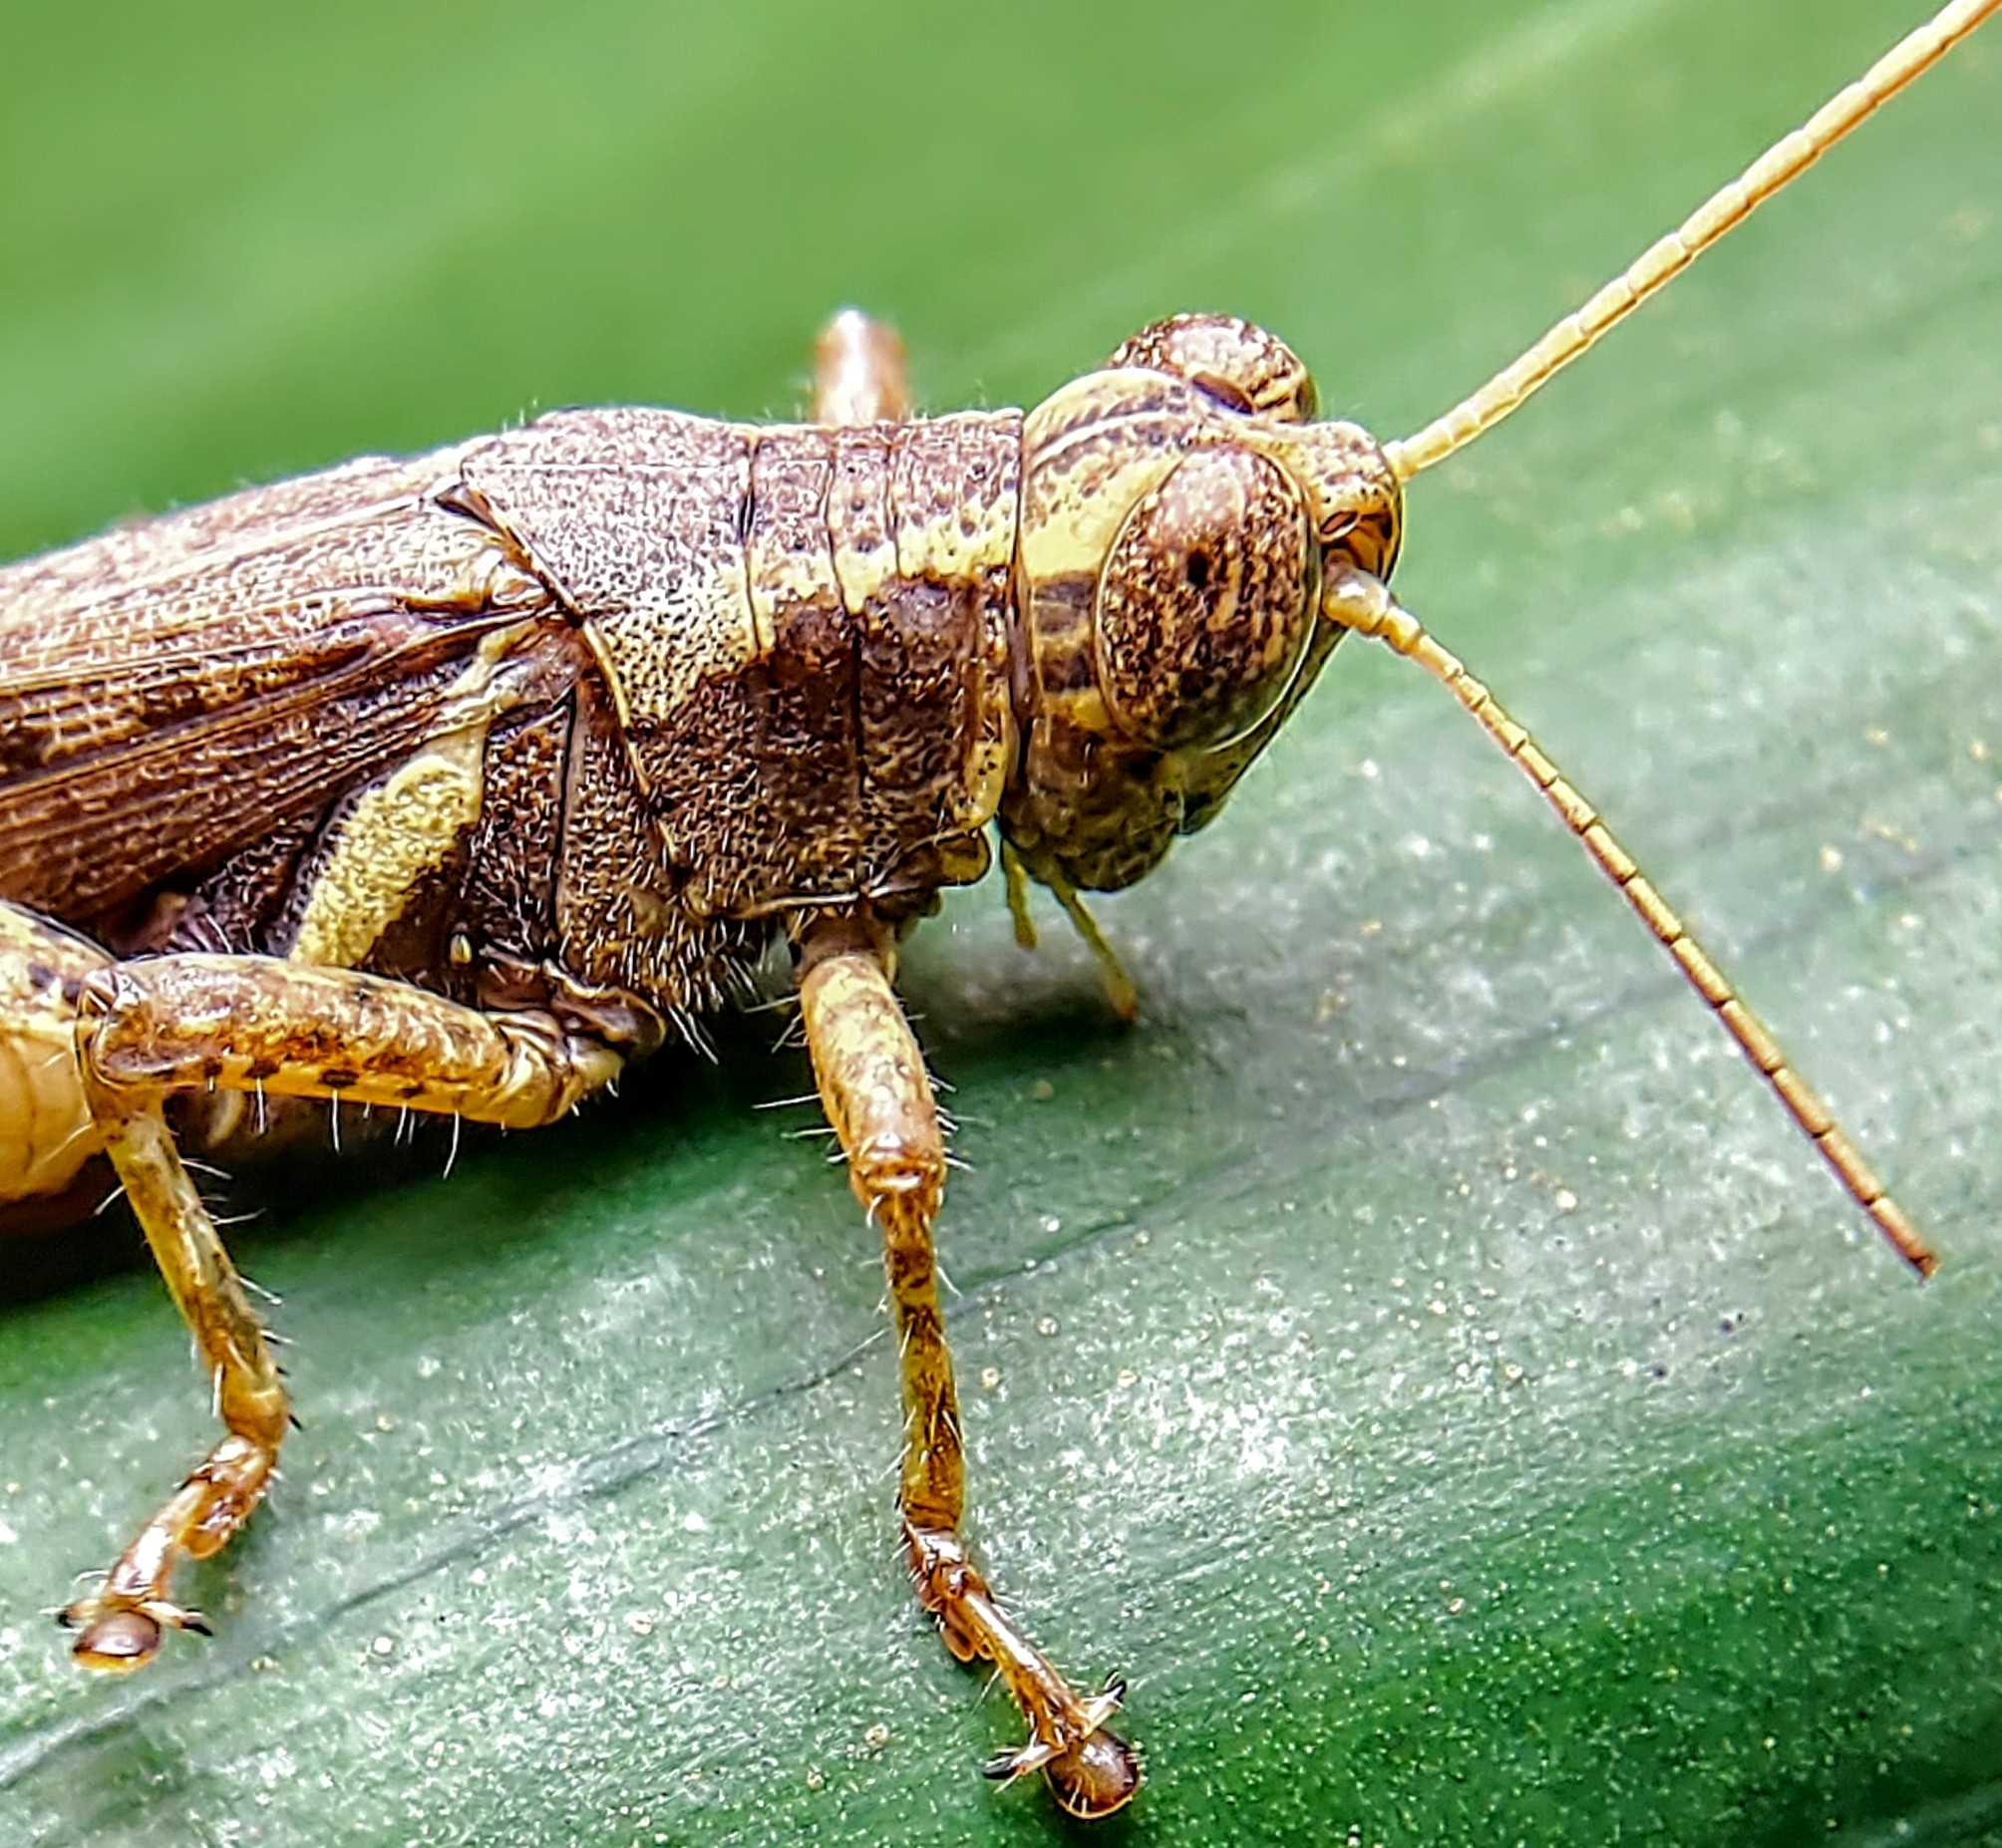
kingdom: Animalia
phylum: Arthropoda
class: Insecta
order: Orthoptera
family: Acrididae
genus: Xenocatantops
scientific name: Xenocatantops humile
